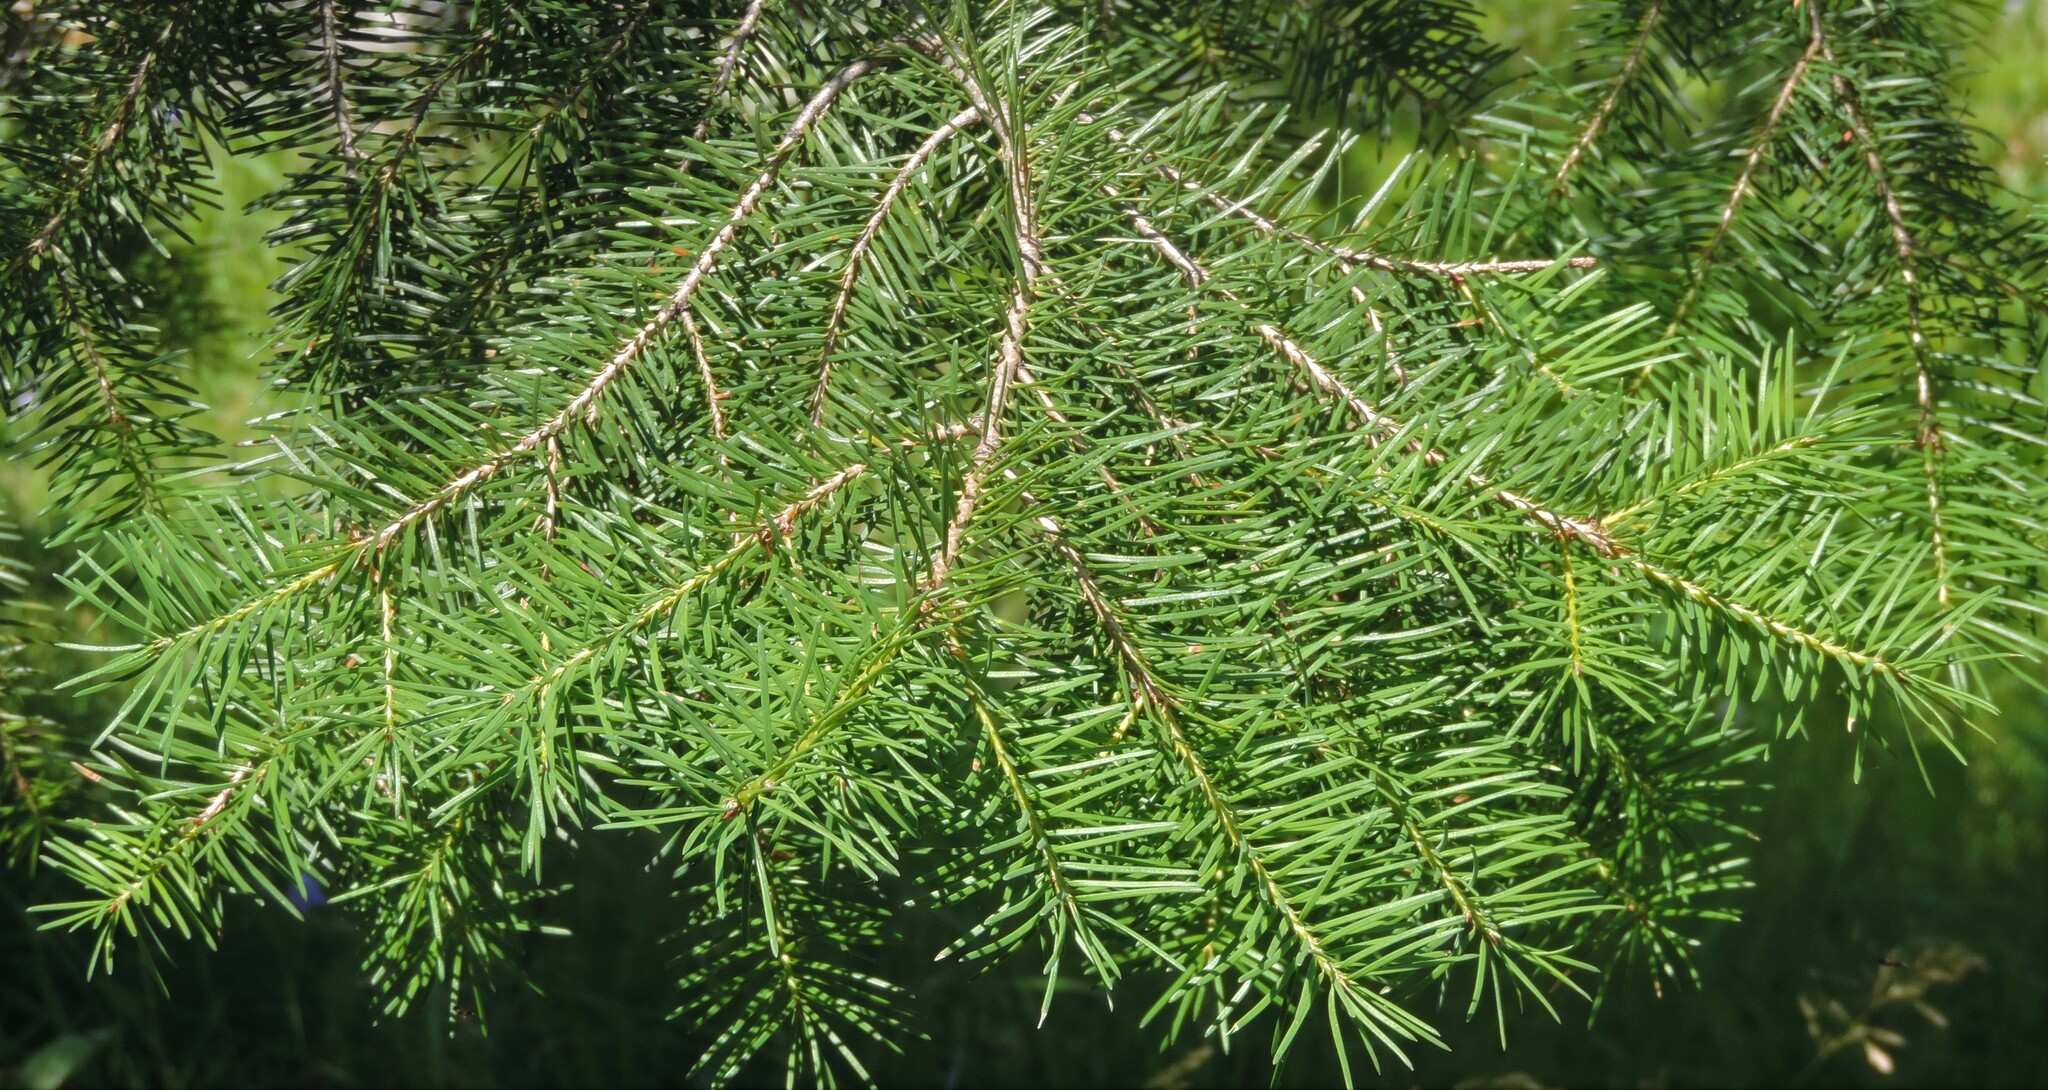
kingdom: Plantae
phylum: Tracheophyta
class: Pinopsida
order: Pinales
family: Pinaceae
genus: Pseudotsuga
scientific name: Pseudotsuga menziesii
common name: Douglas fir
